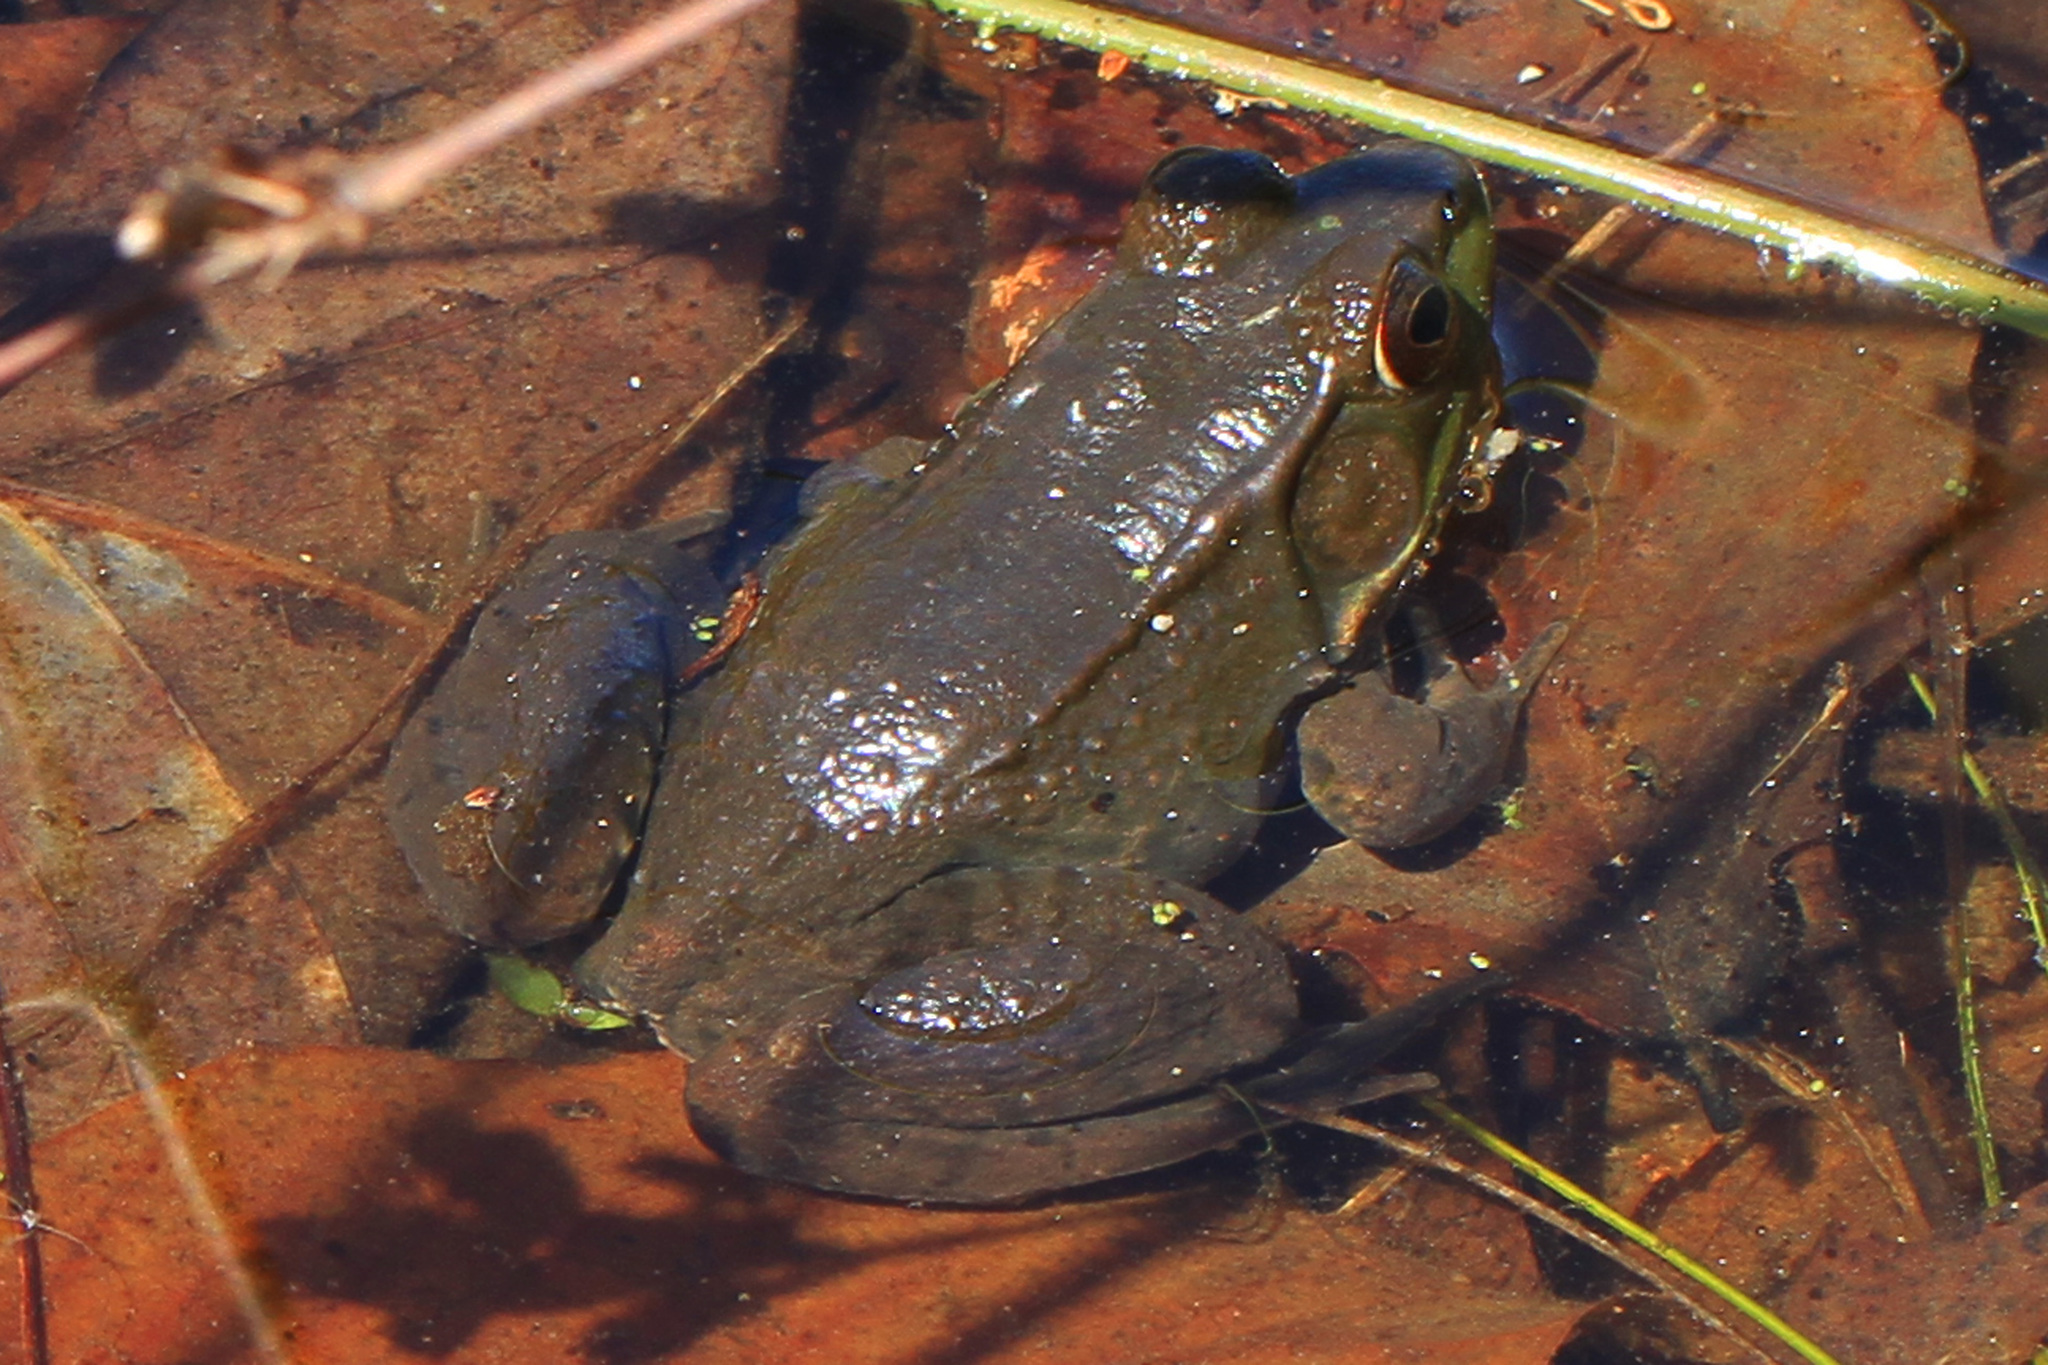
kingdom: Animalia
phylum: Chordata
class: Amphibia
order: Anura
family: Ranidae
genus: Lithobates
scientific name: Lithobates clamitans
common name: Green frog
